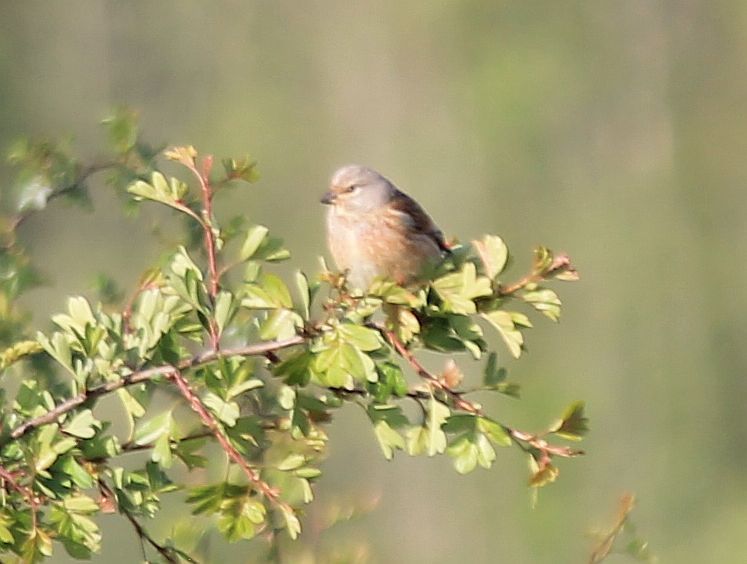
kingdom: Animalia
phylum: Chordata
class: Aves
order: Passeriformes
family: Fringillidae
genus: Linaria
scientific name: Linaria cannabina
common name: Common linnet
